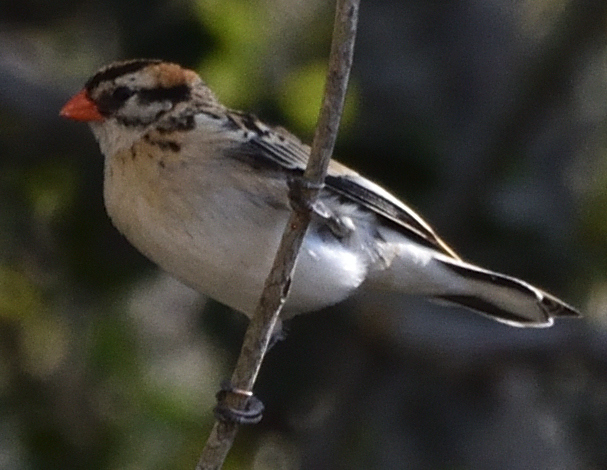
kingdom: Animalia
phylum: Chordata
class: Aves
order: Passeriformes
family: Viduidae
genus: Vidua
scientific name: Vidua macroura
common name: Pin-tailed whydah
